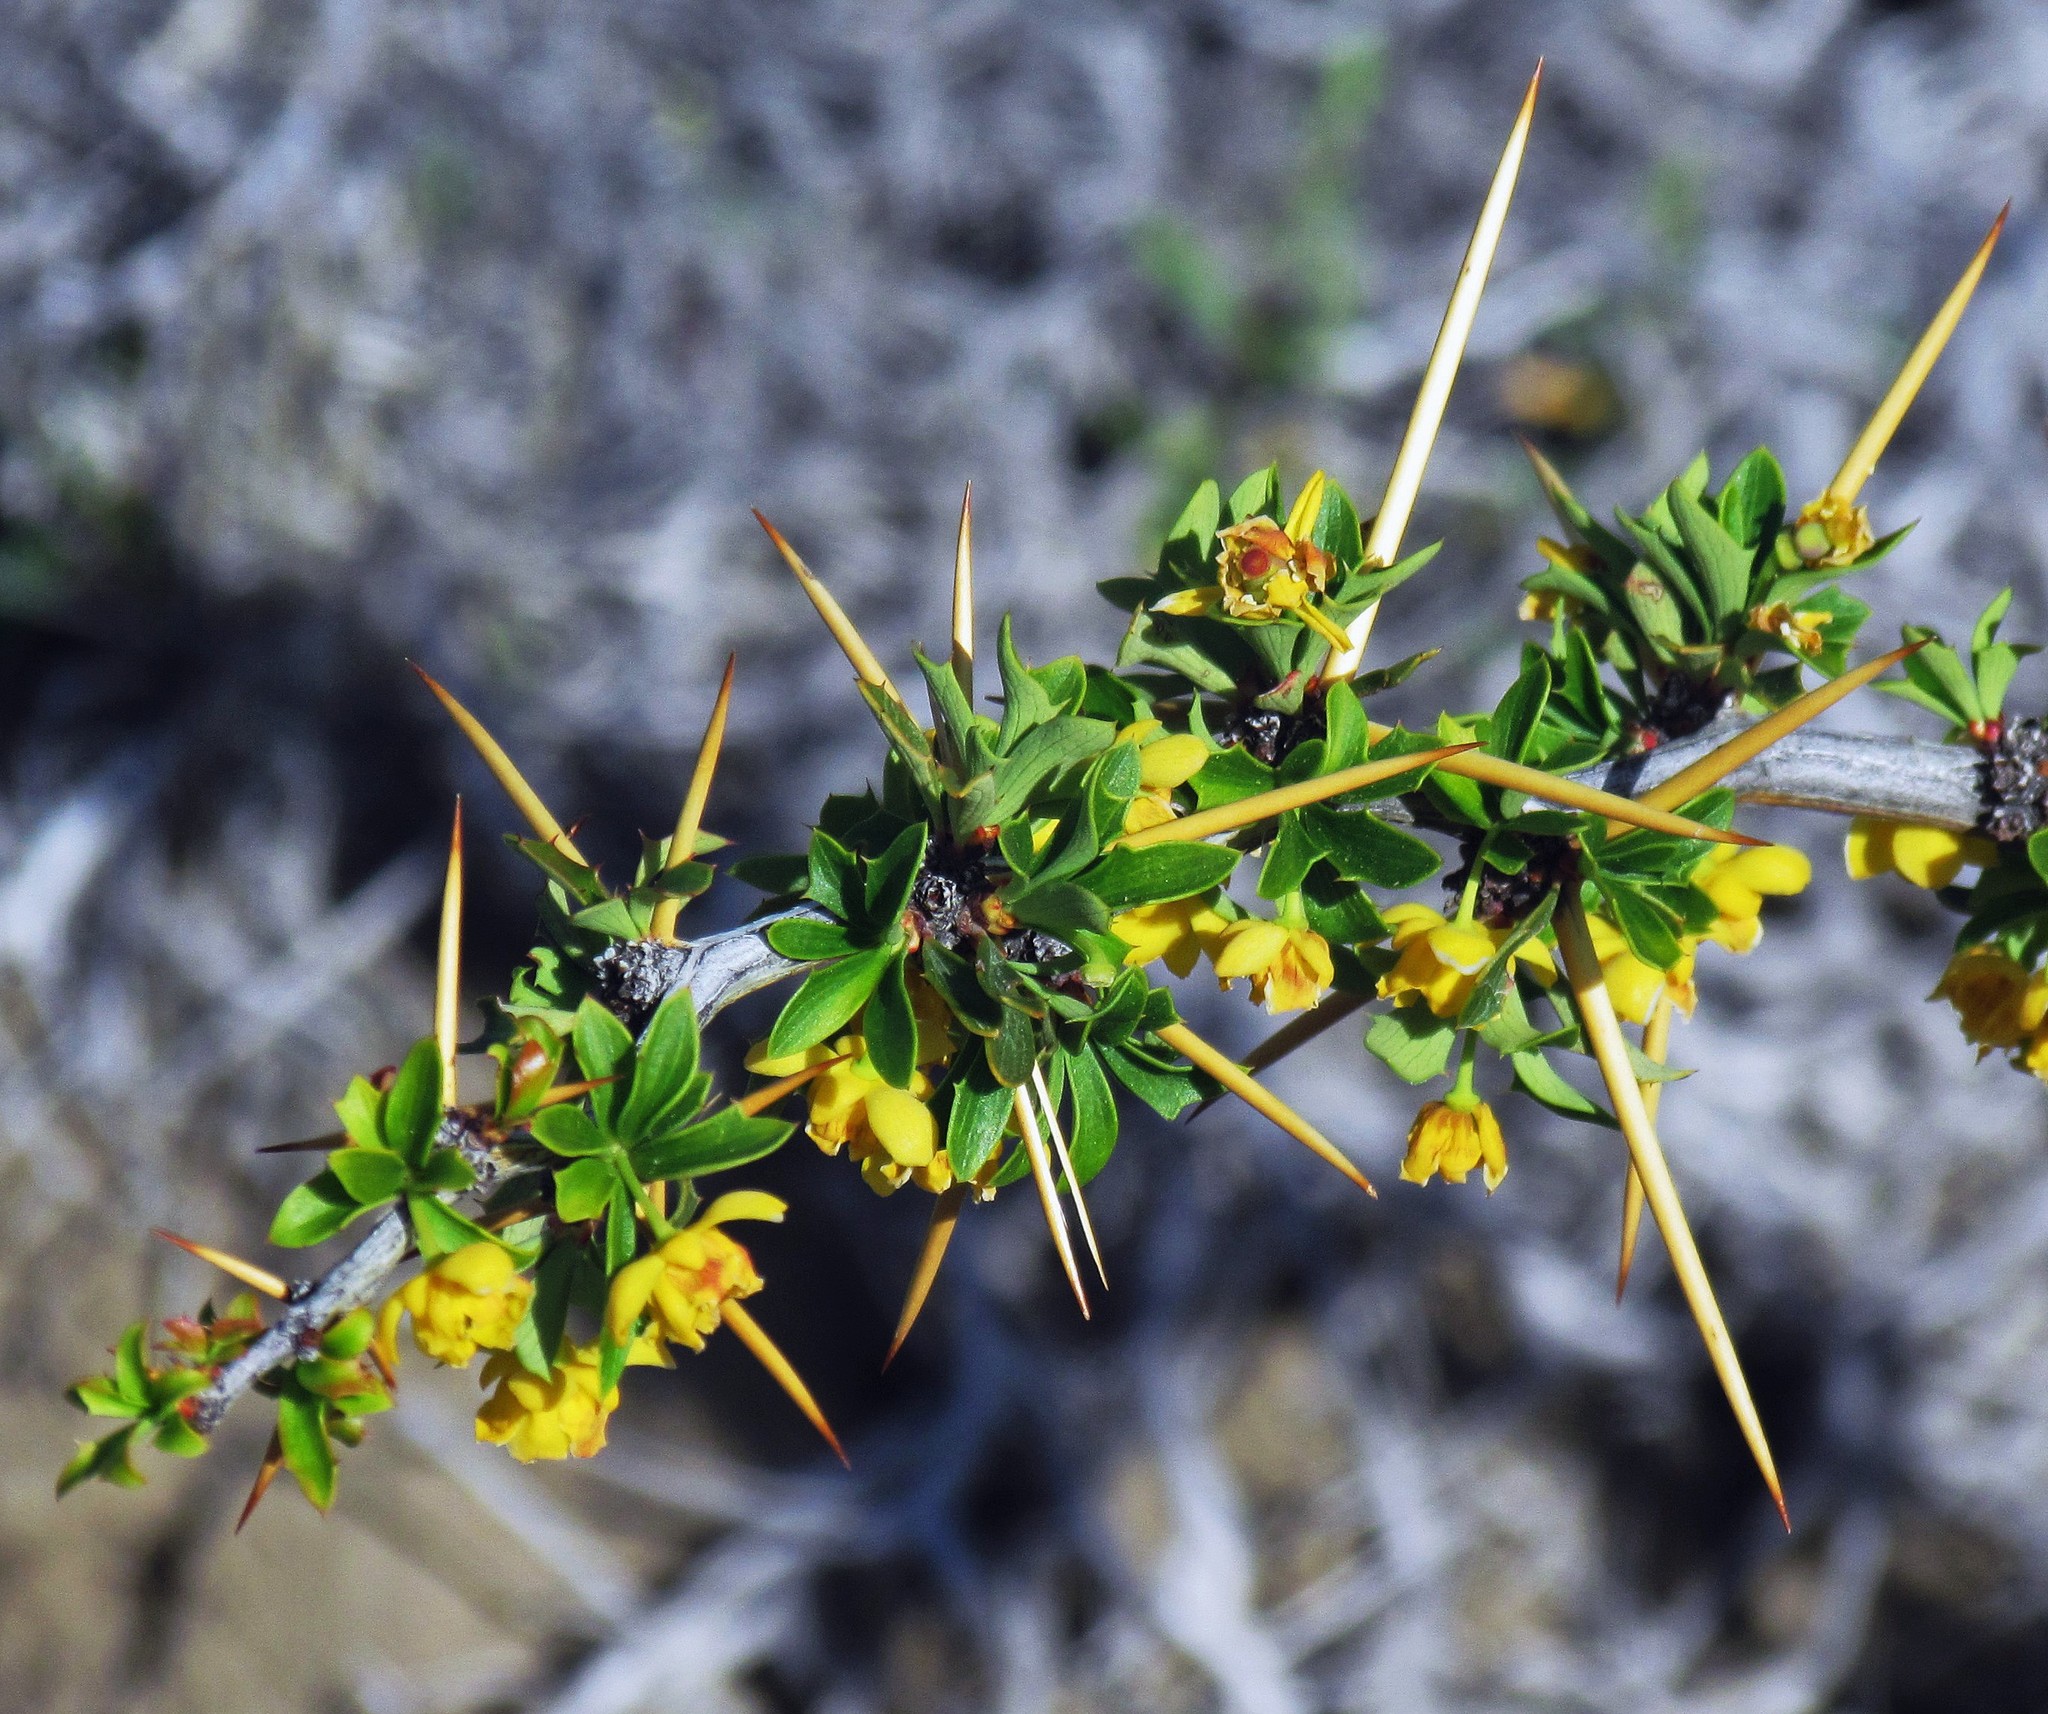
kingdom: Plantae
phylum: Tracheophyta
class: Magnoliopsida
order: Ranunculales
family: Berberidaceae
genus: Berberis
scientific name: Berberis microphylla
